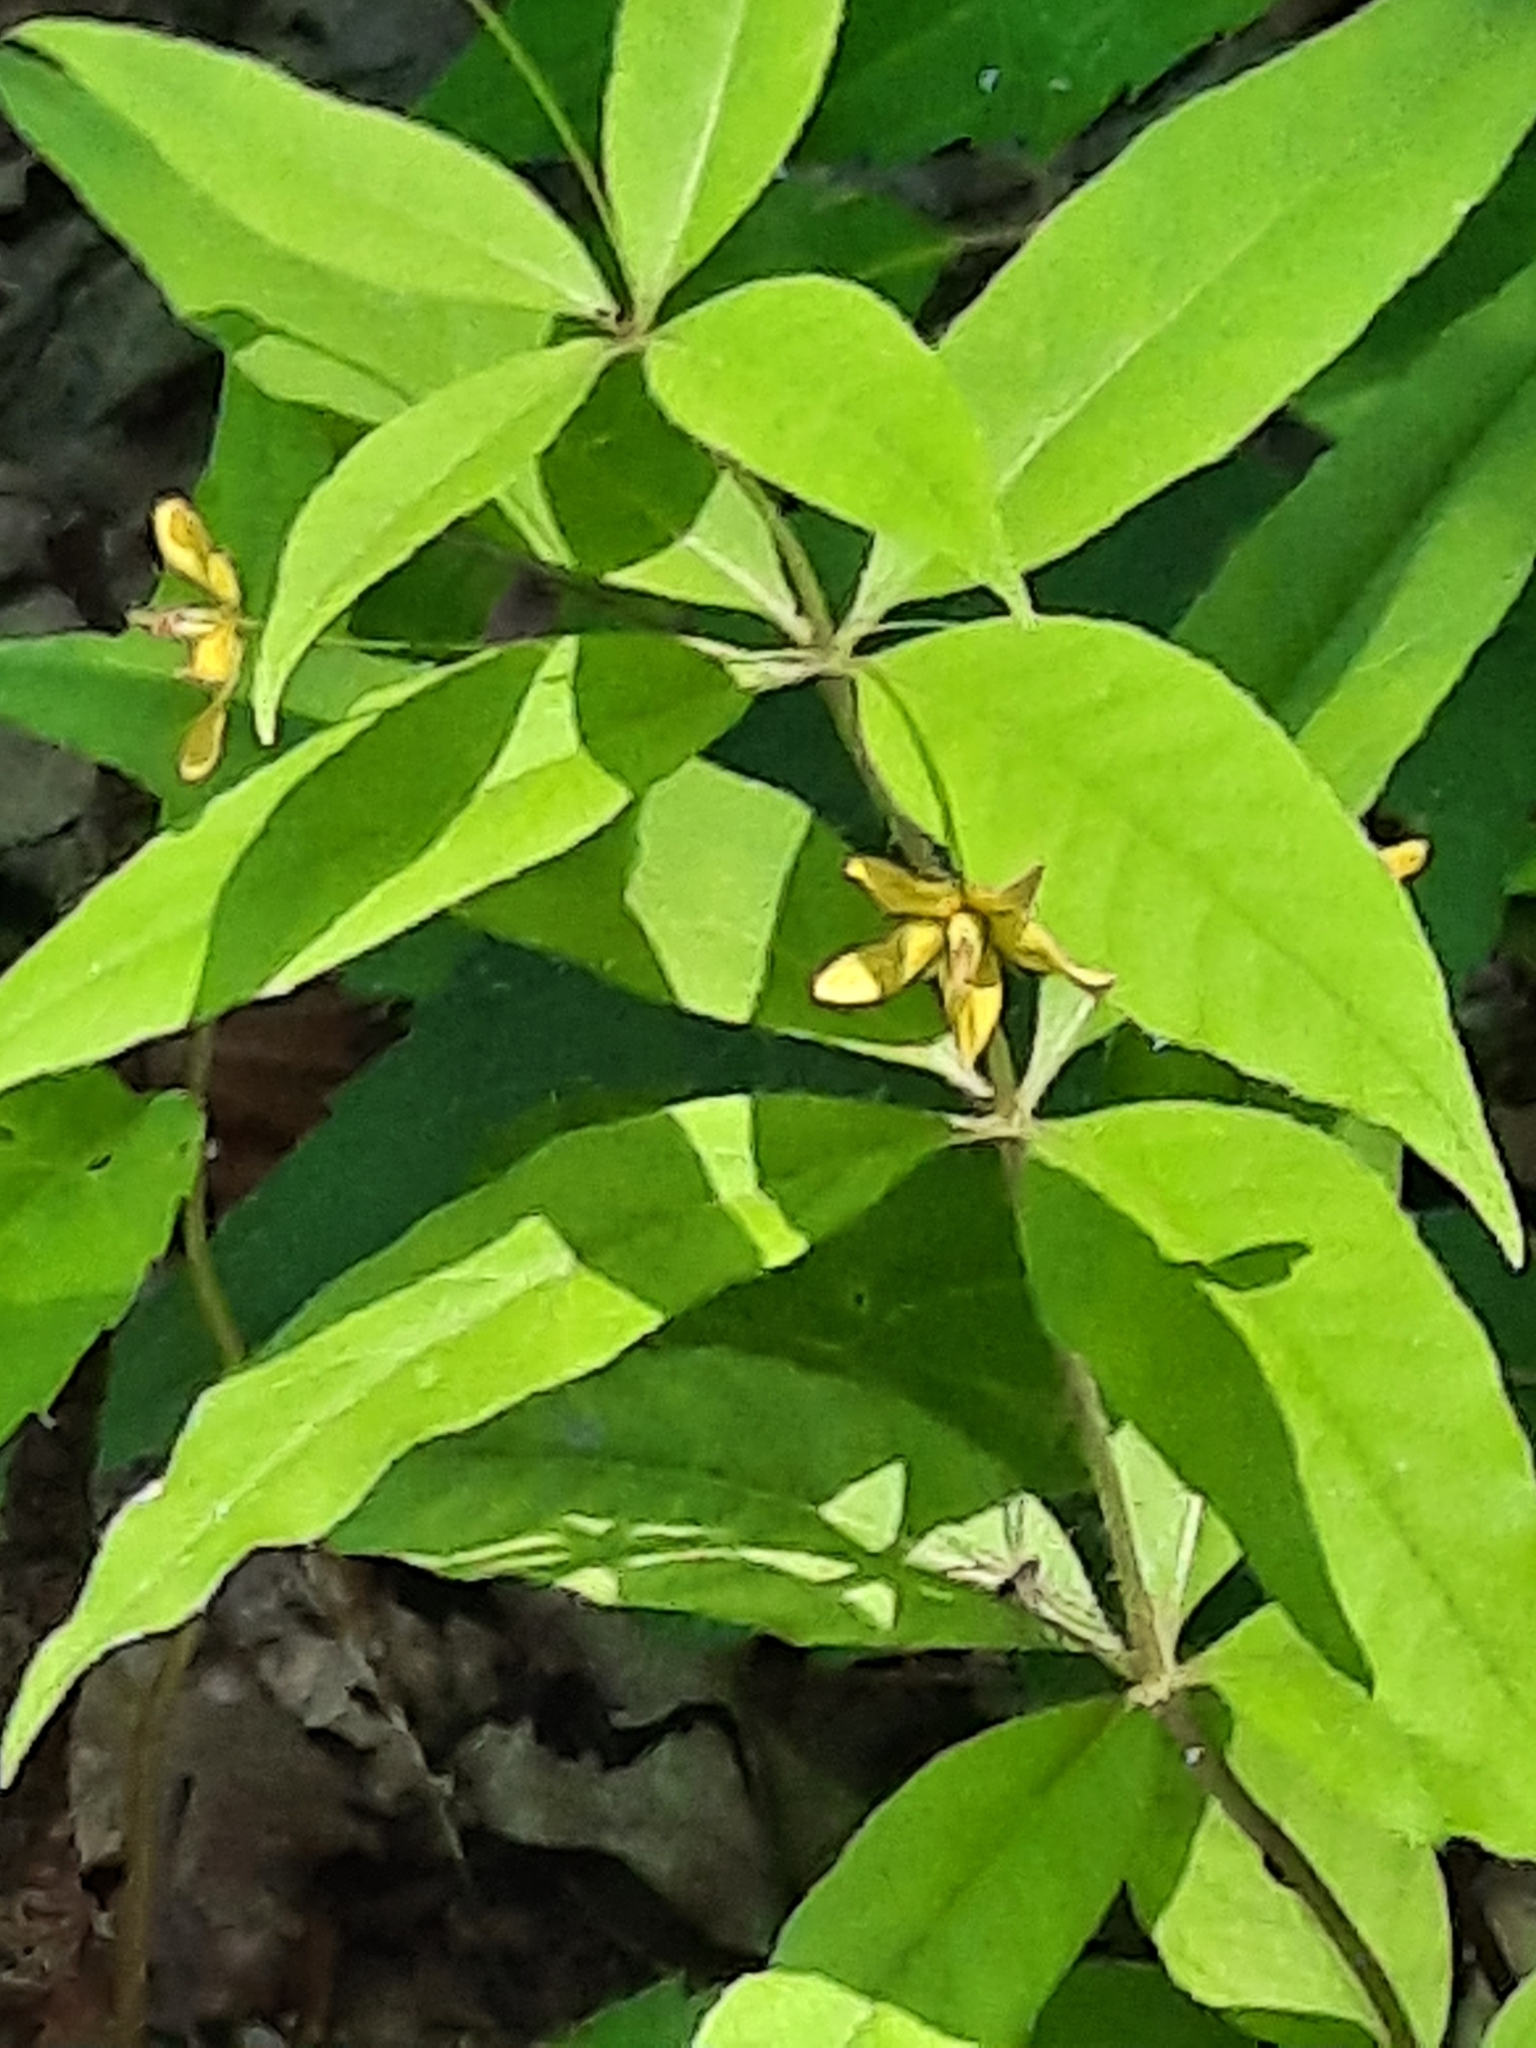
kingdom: Plantae
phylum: Tracheophyta
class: Magnoliopsida
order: Ericales
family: Primulaceae
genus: Lysimachia
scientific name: Lysimachia quadrifolia
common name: Whorled loosestrife
